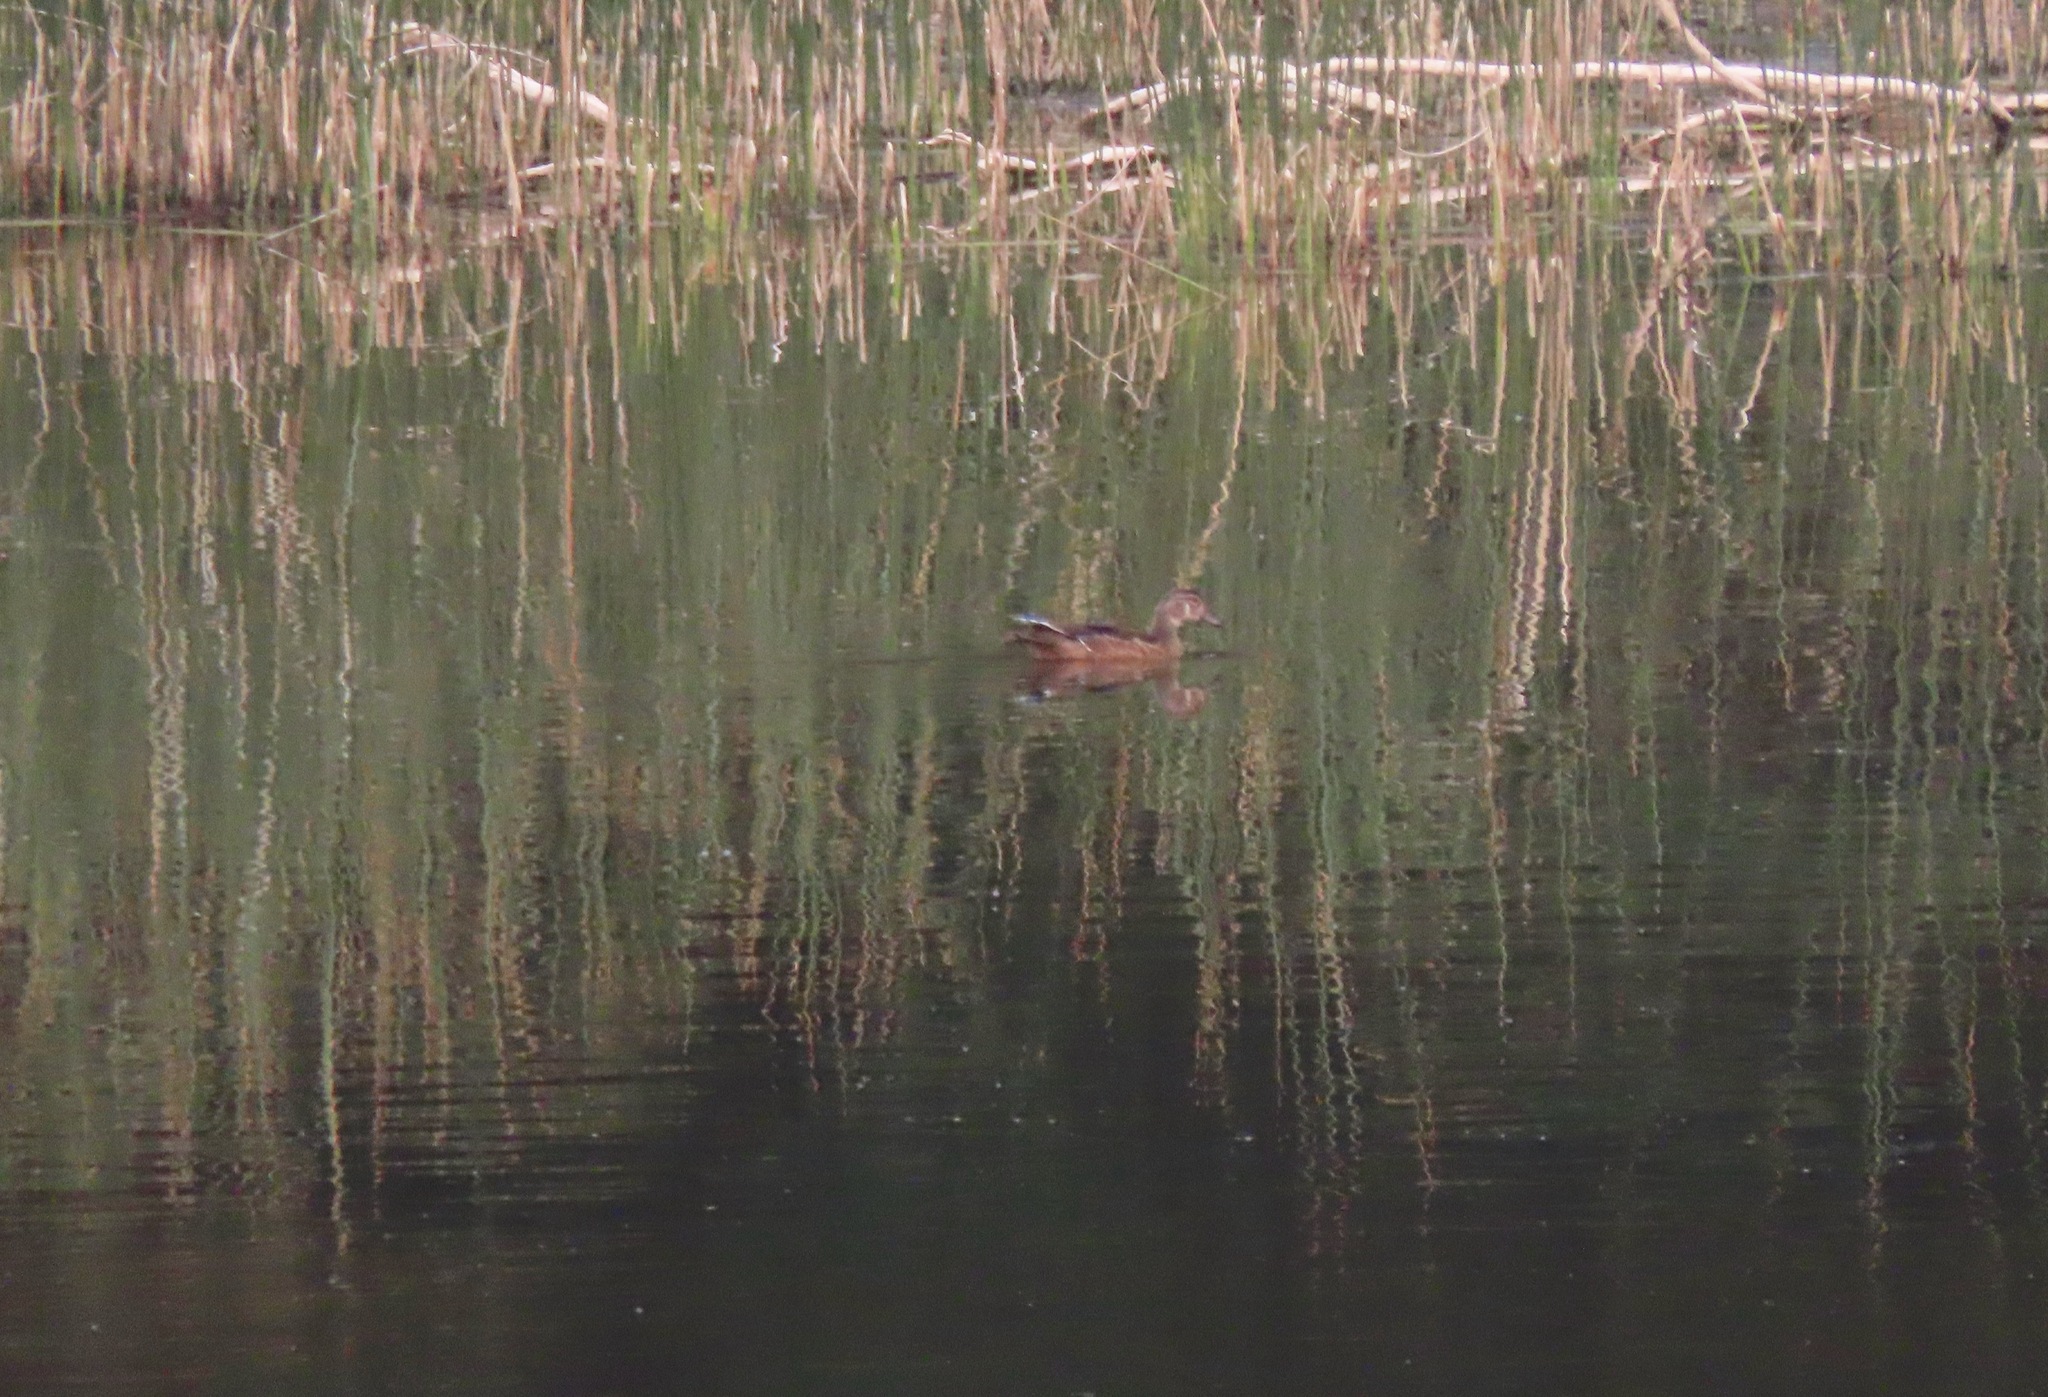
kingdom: Animalia
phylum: Chordata
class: Aves
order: Anseriformes
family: Anatidae
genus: Aix
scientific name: Aix sponsa
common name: Wood duck
